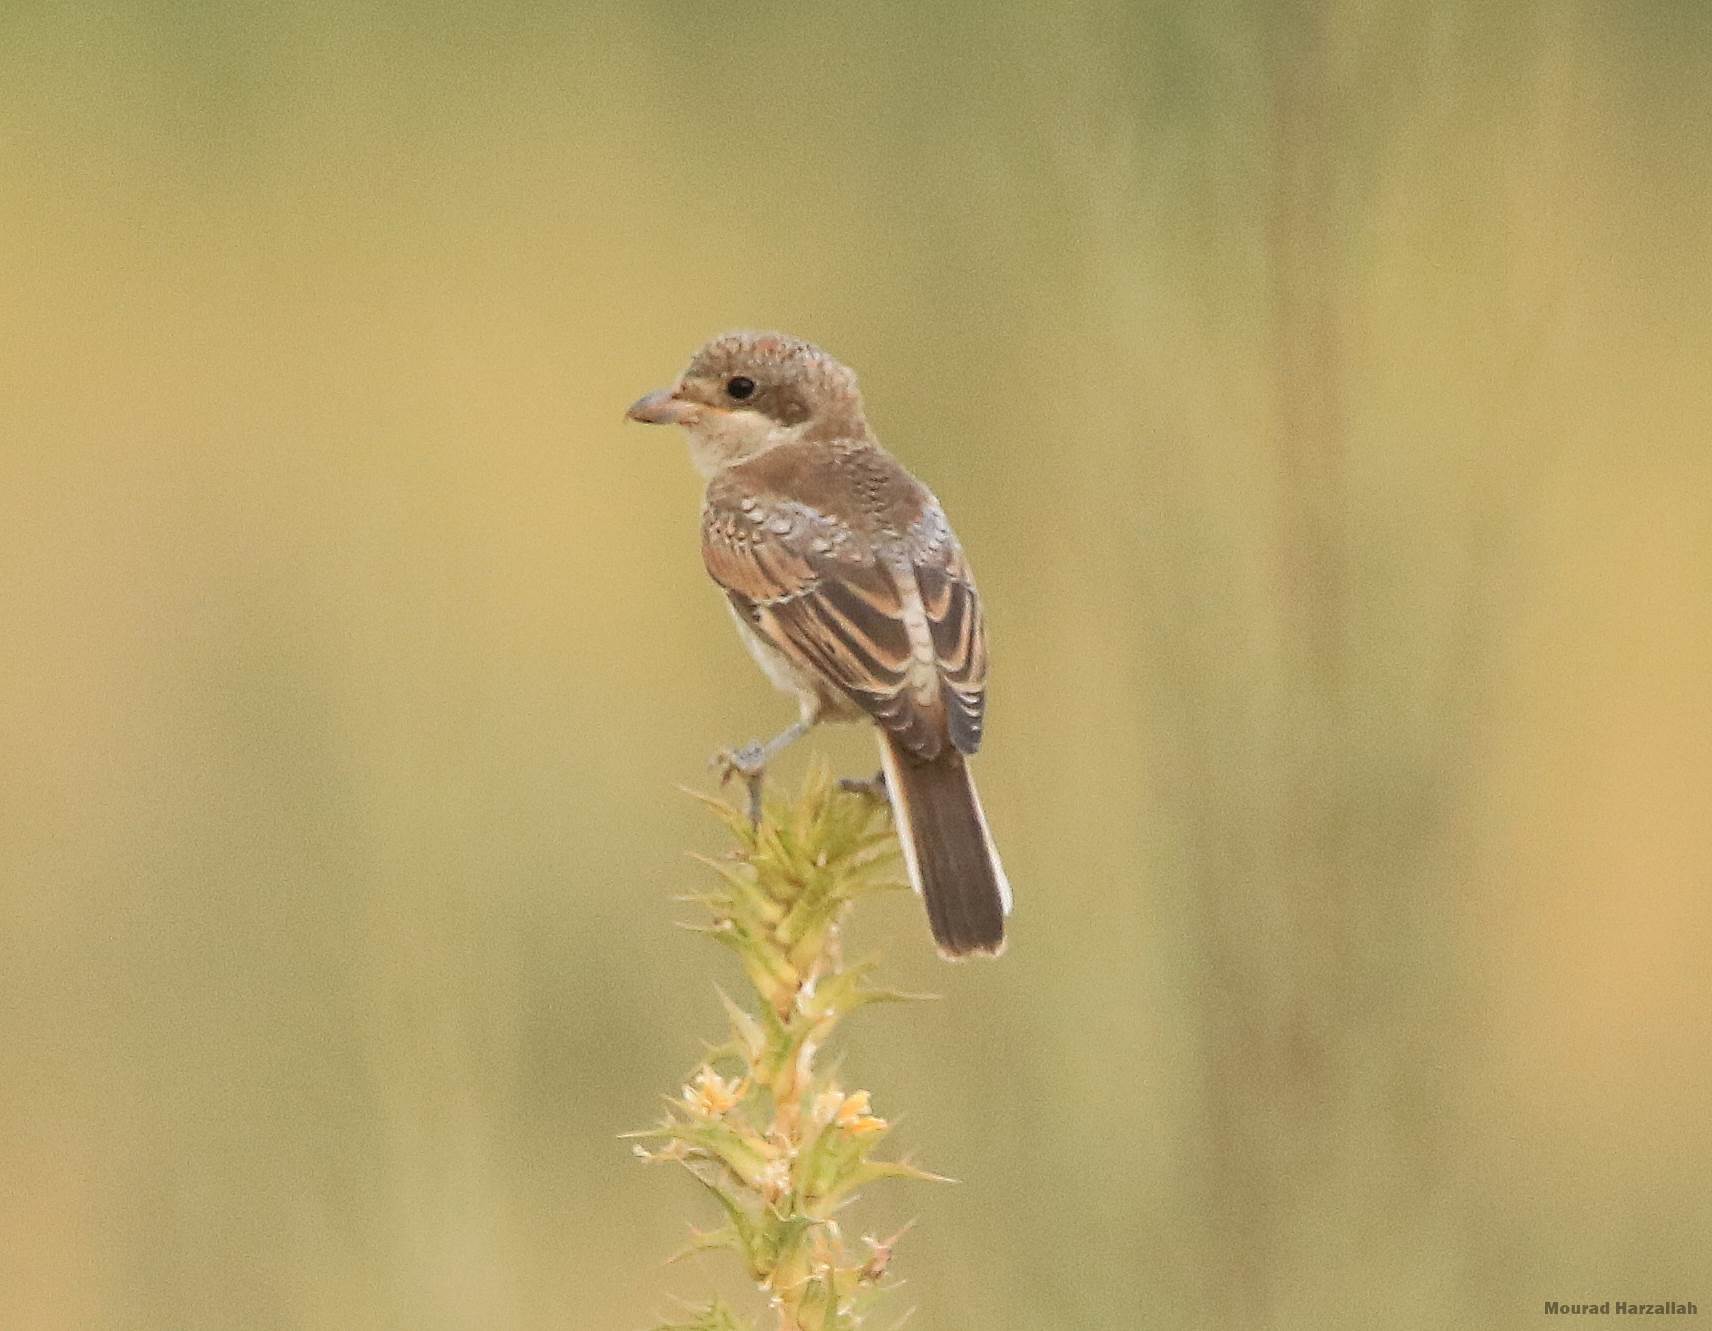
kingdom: Animalia
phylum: Chordata
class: Aves
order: Passeriformes
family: Laniidae
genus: Lanius
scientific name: Lanius senator
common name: Woodchat shrike
